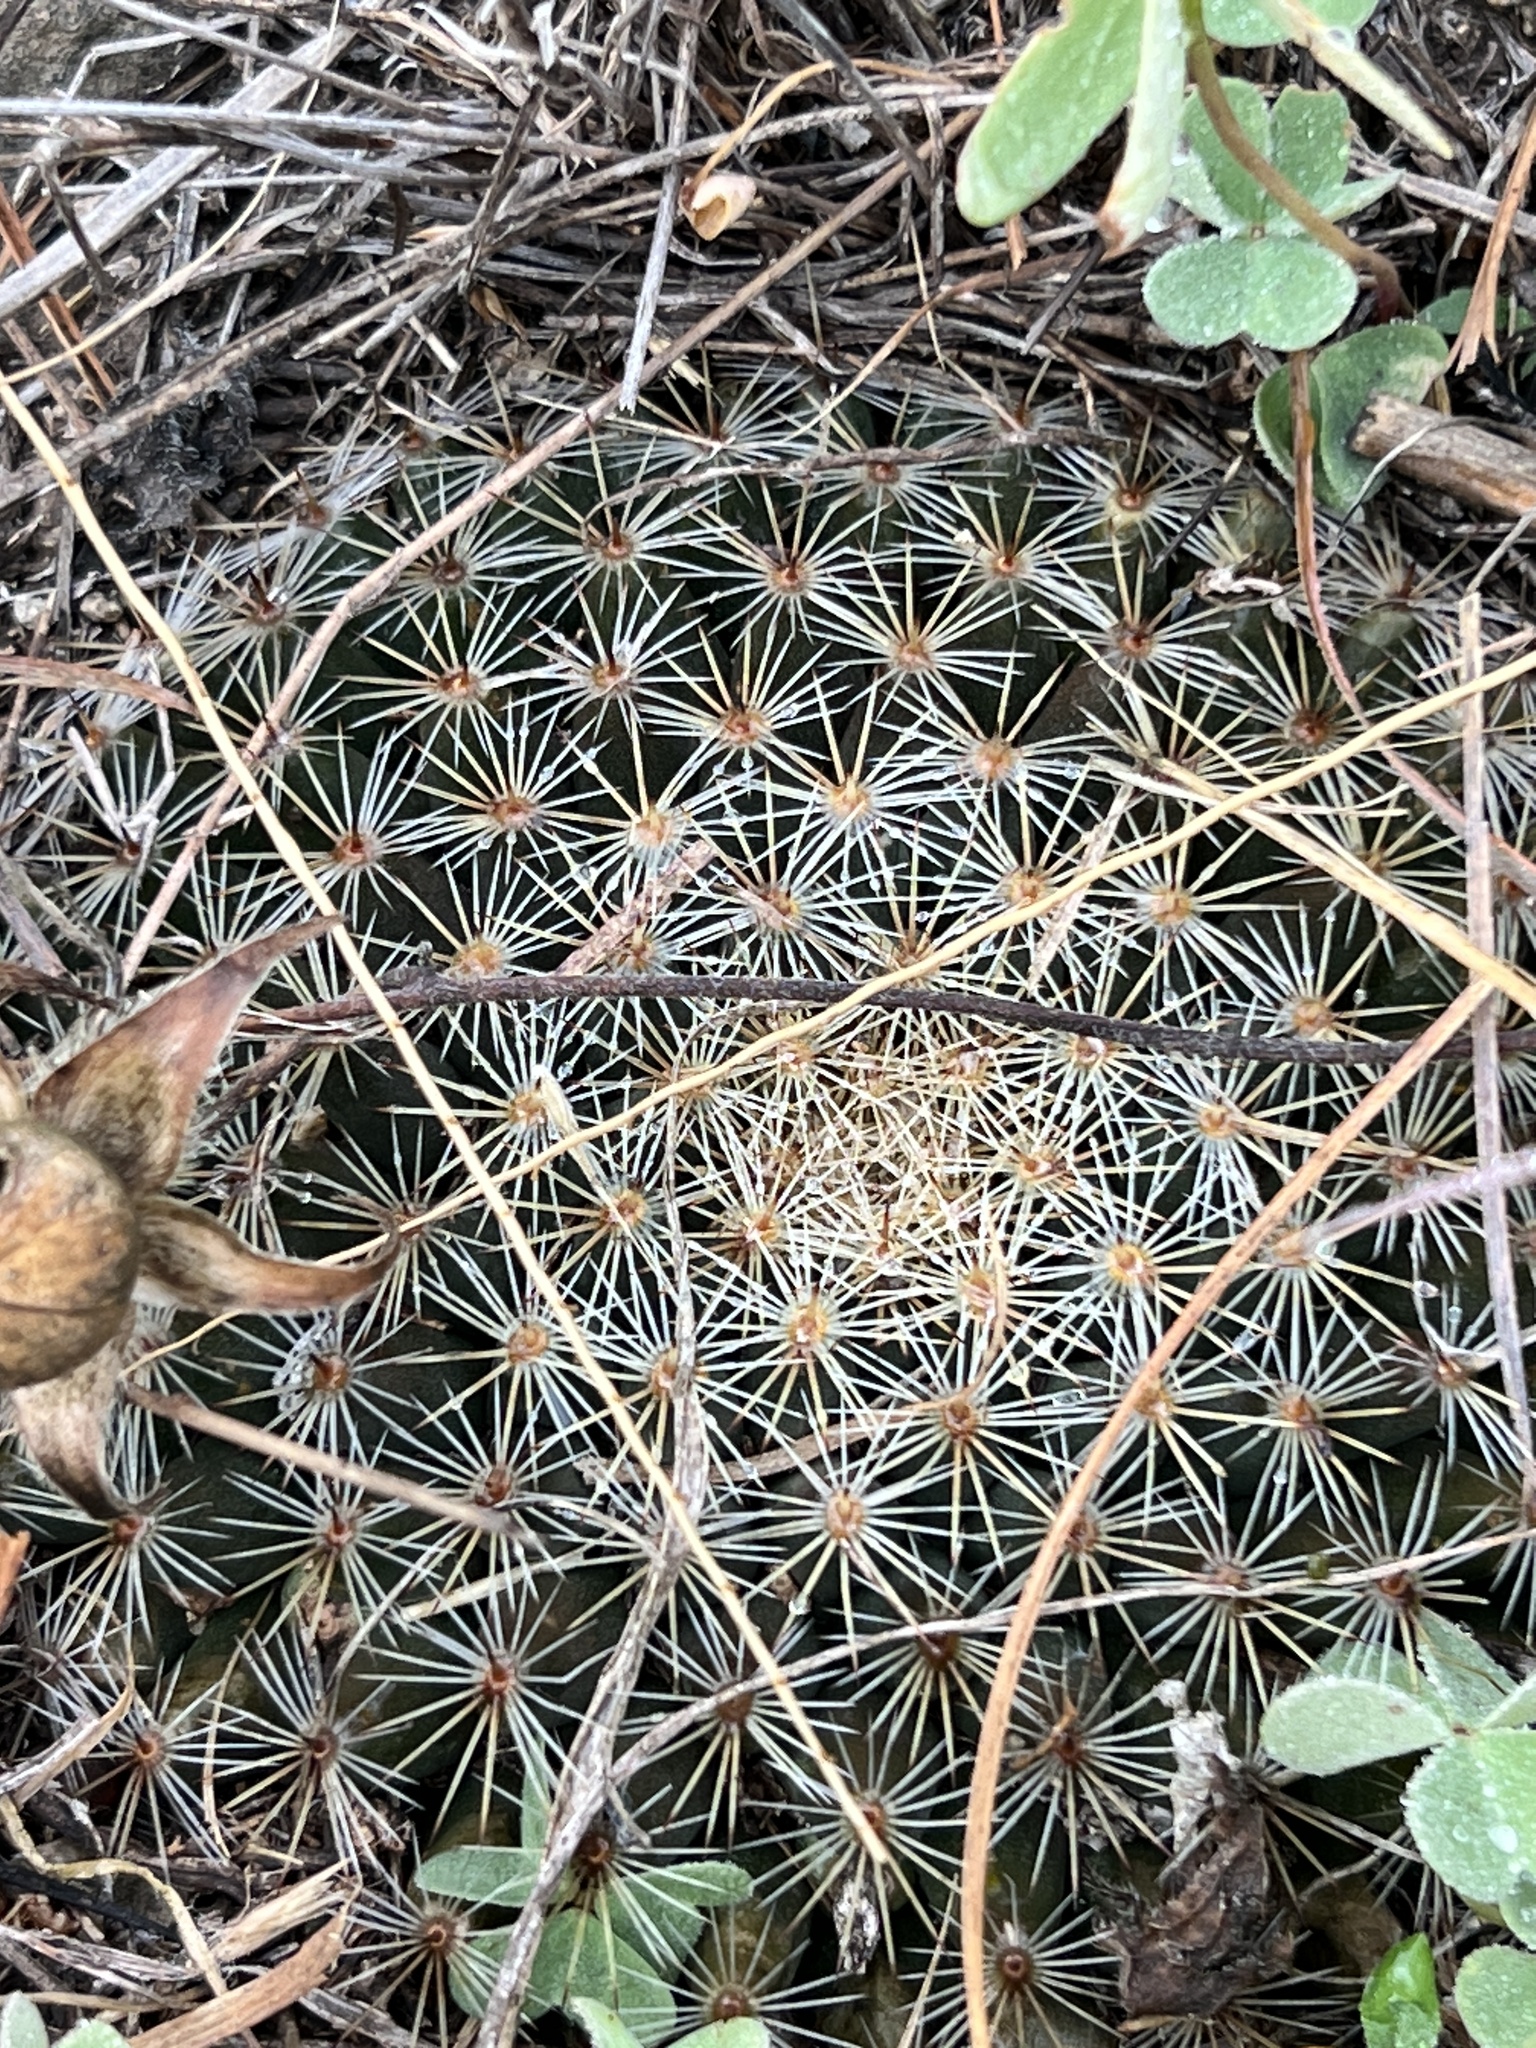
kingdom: Plantae
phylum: Tracheophyta
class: Magnoliopsida
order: Caryophyllales
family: Cactaceae
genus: Mammillaria
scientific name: Mammillaria heyderi
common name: Little nipple cactus
